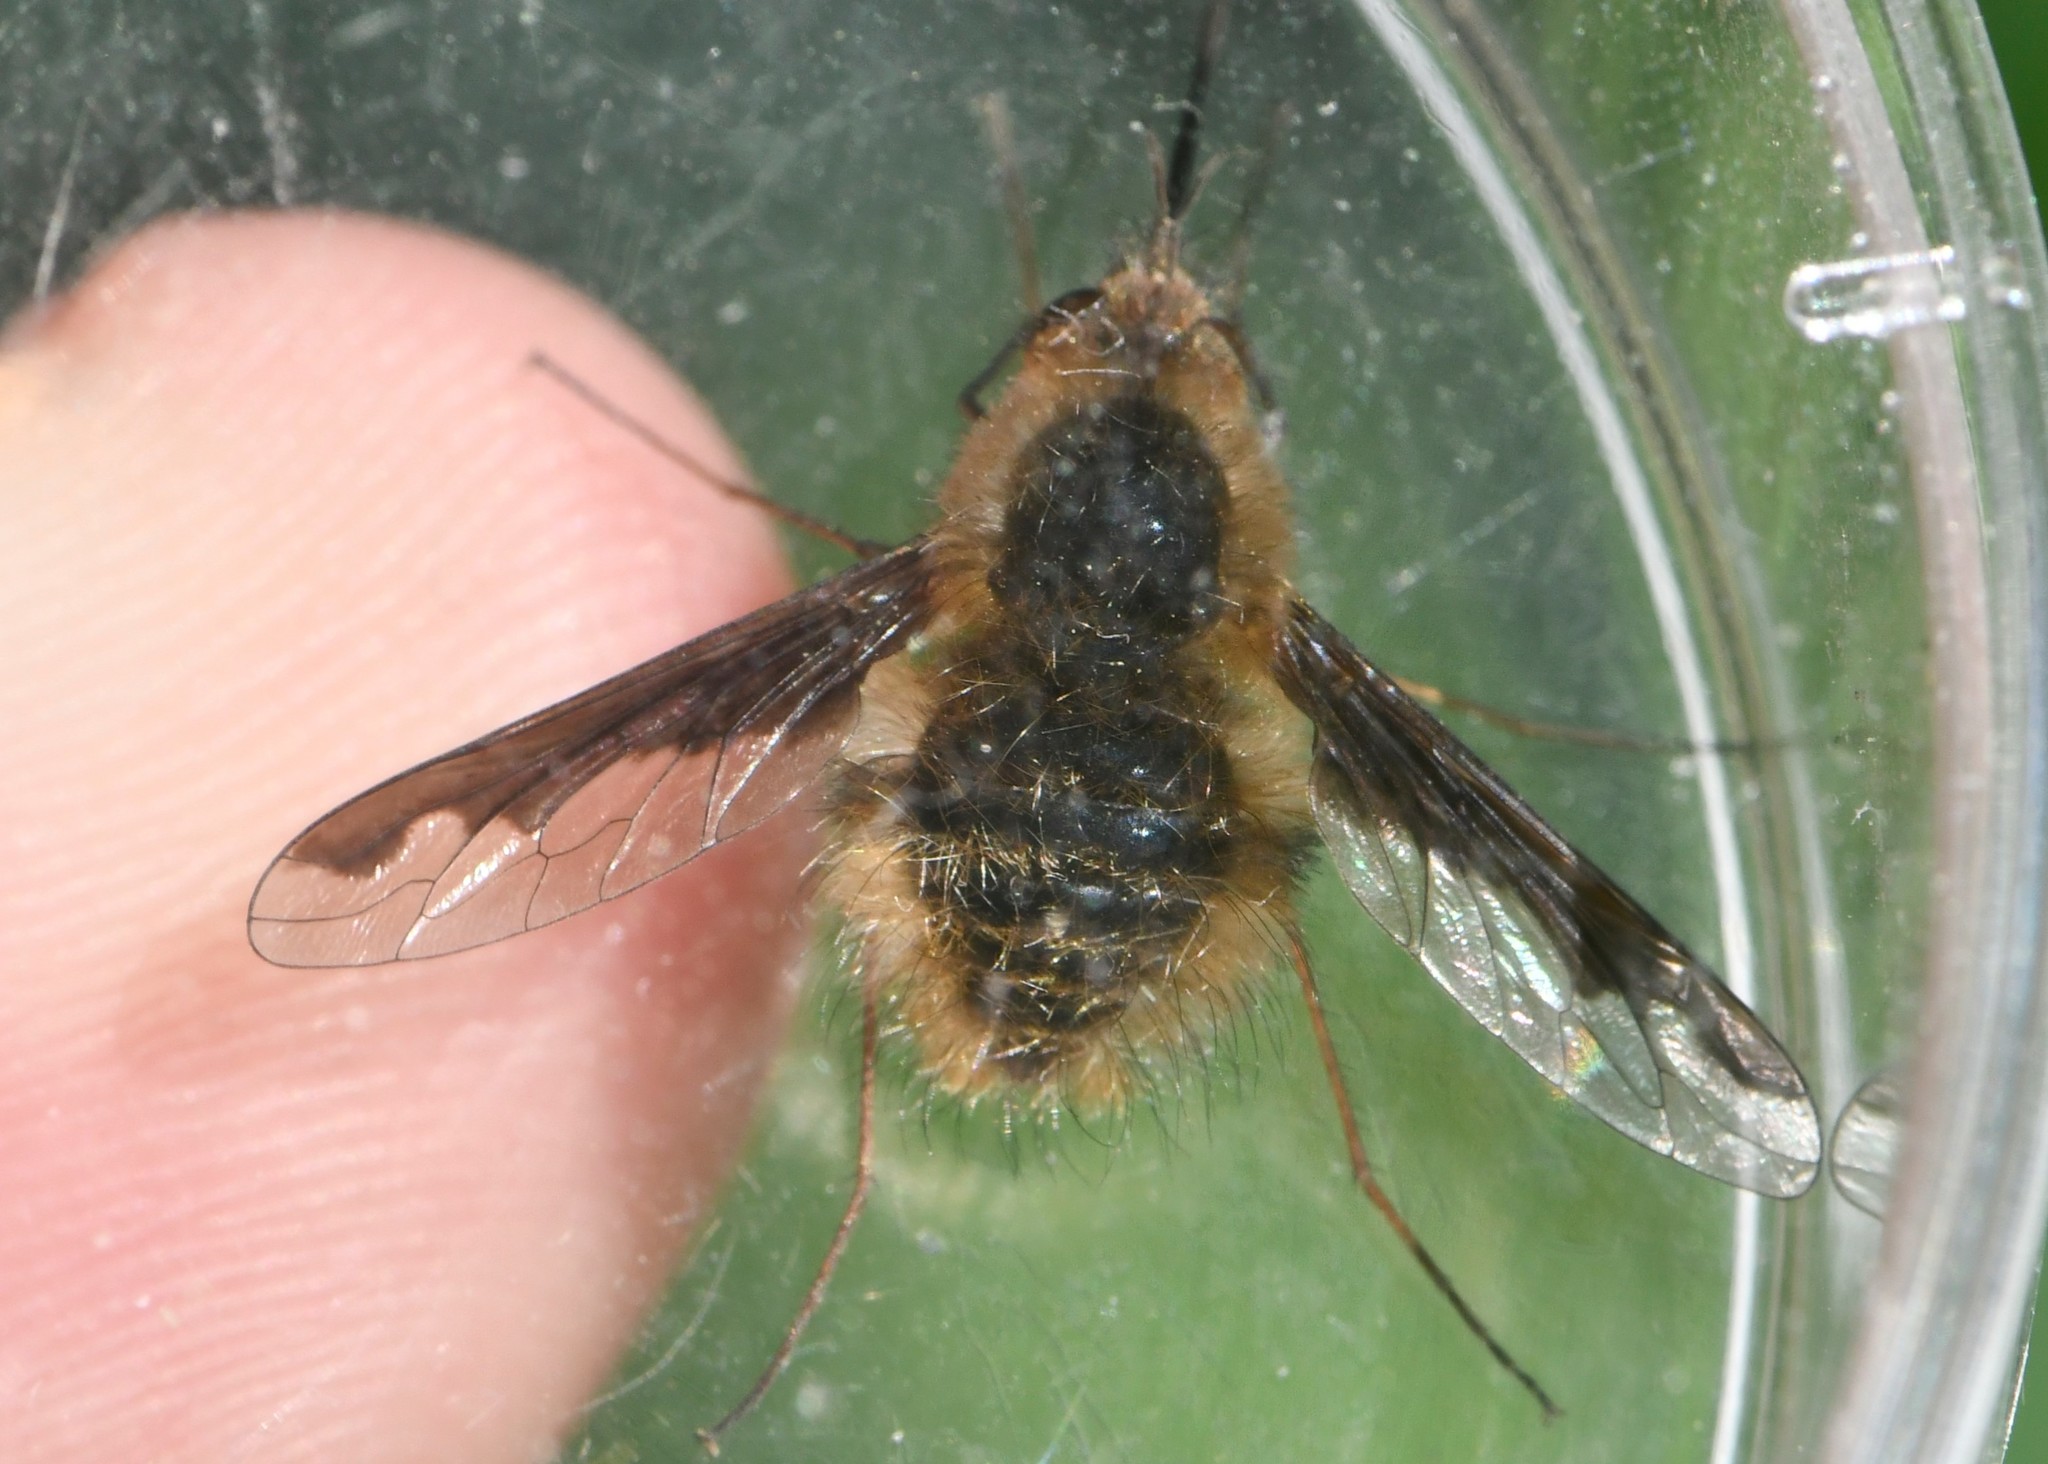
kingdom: Animalia
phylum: Arthropoda
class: Insecta
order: Diptera
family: Bombyliidae
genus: Bombylius
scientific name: Bombylius major
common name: Bee fly
